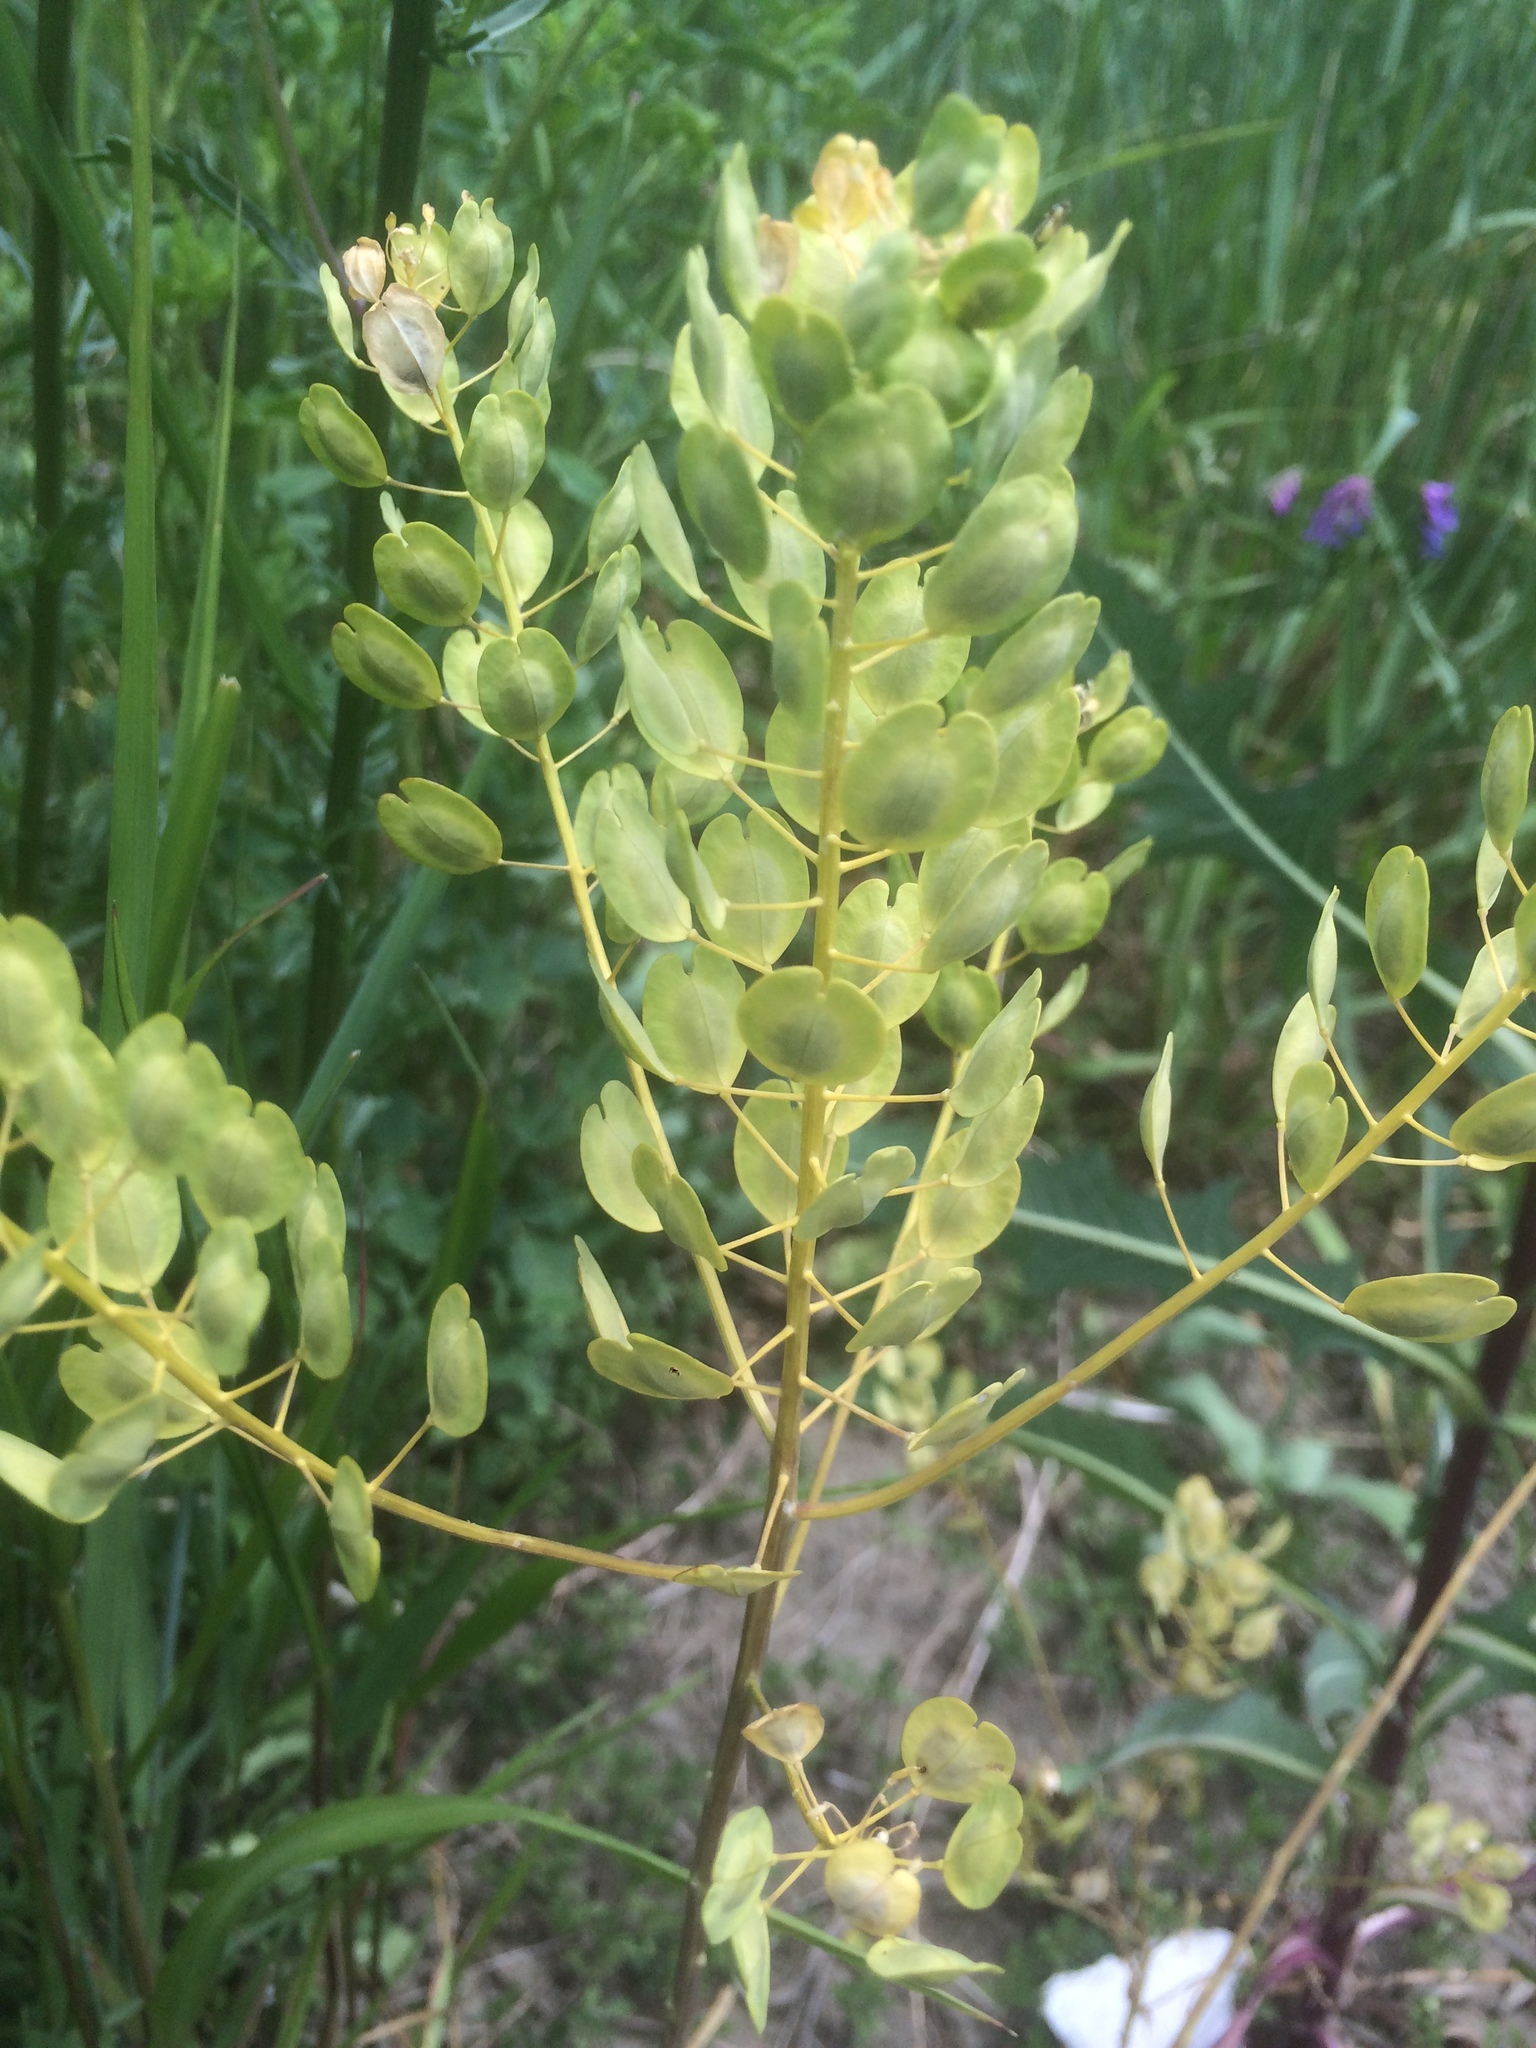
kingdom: Plantae
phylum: Tracheophyta
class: Magnoliopsida
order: Brassicales
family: Brassicaceae
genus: Thlaspi
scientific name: Thlaspi arvense
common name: Field pennycress
